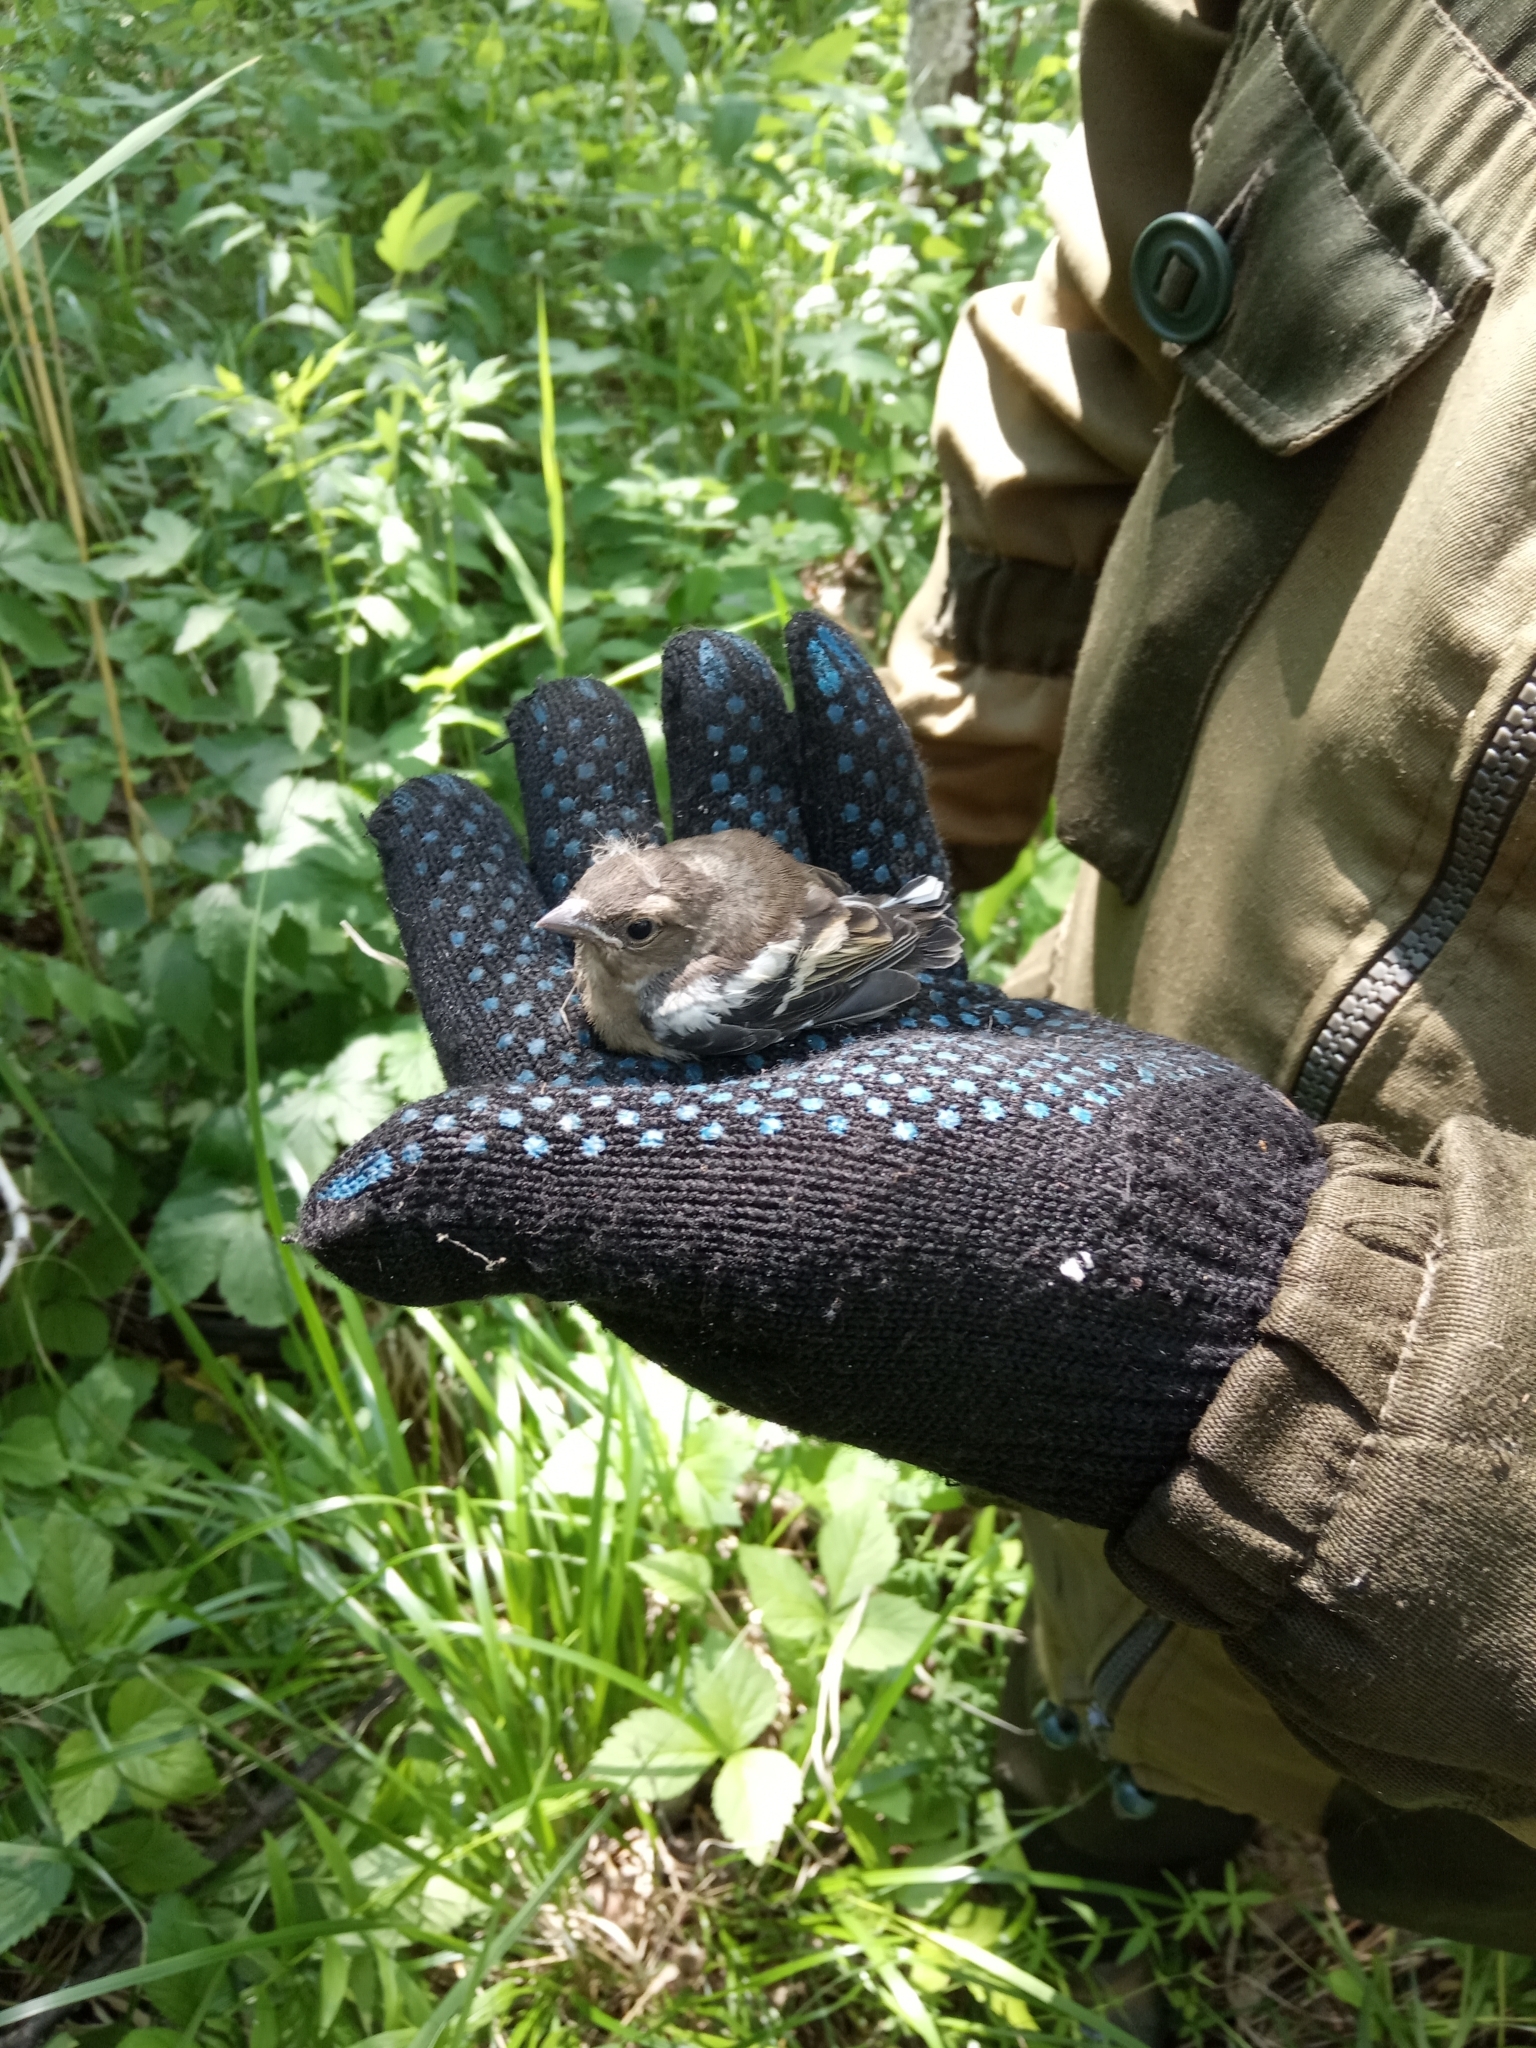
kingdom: Animalia
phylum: Chordata
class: Aves
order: Passeriformes
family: Fringillidae
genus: Fringilla
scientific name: Fringilla coelebs
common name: Common chaffinch
